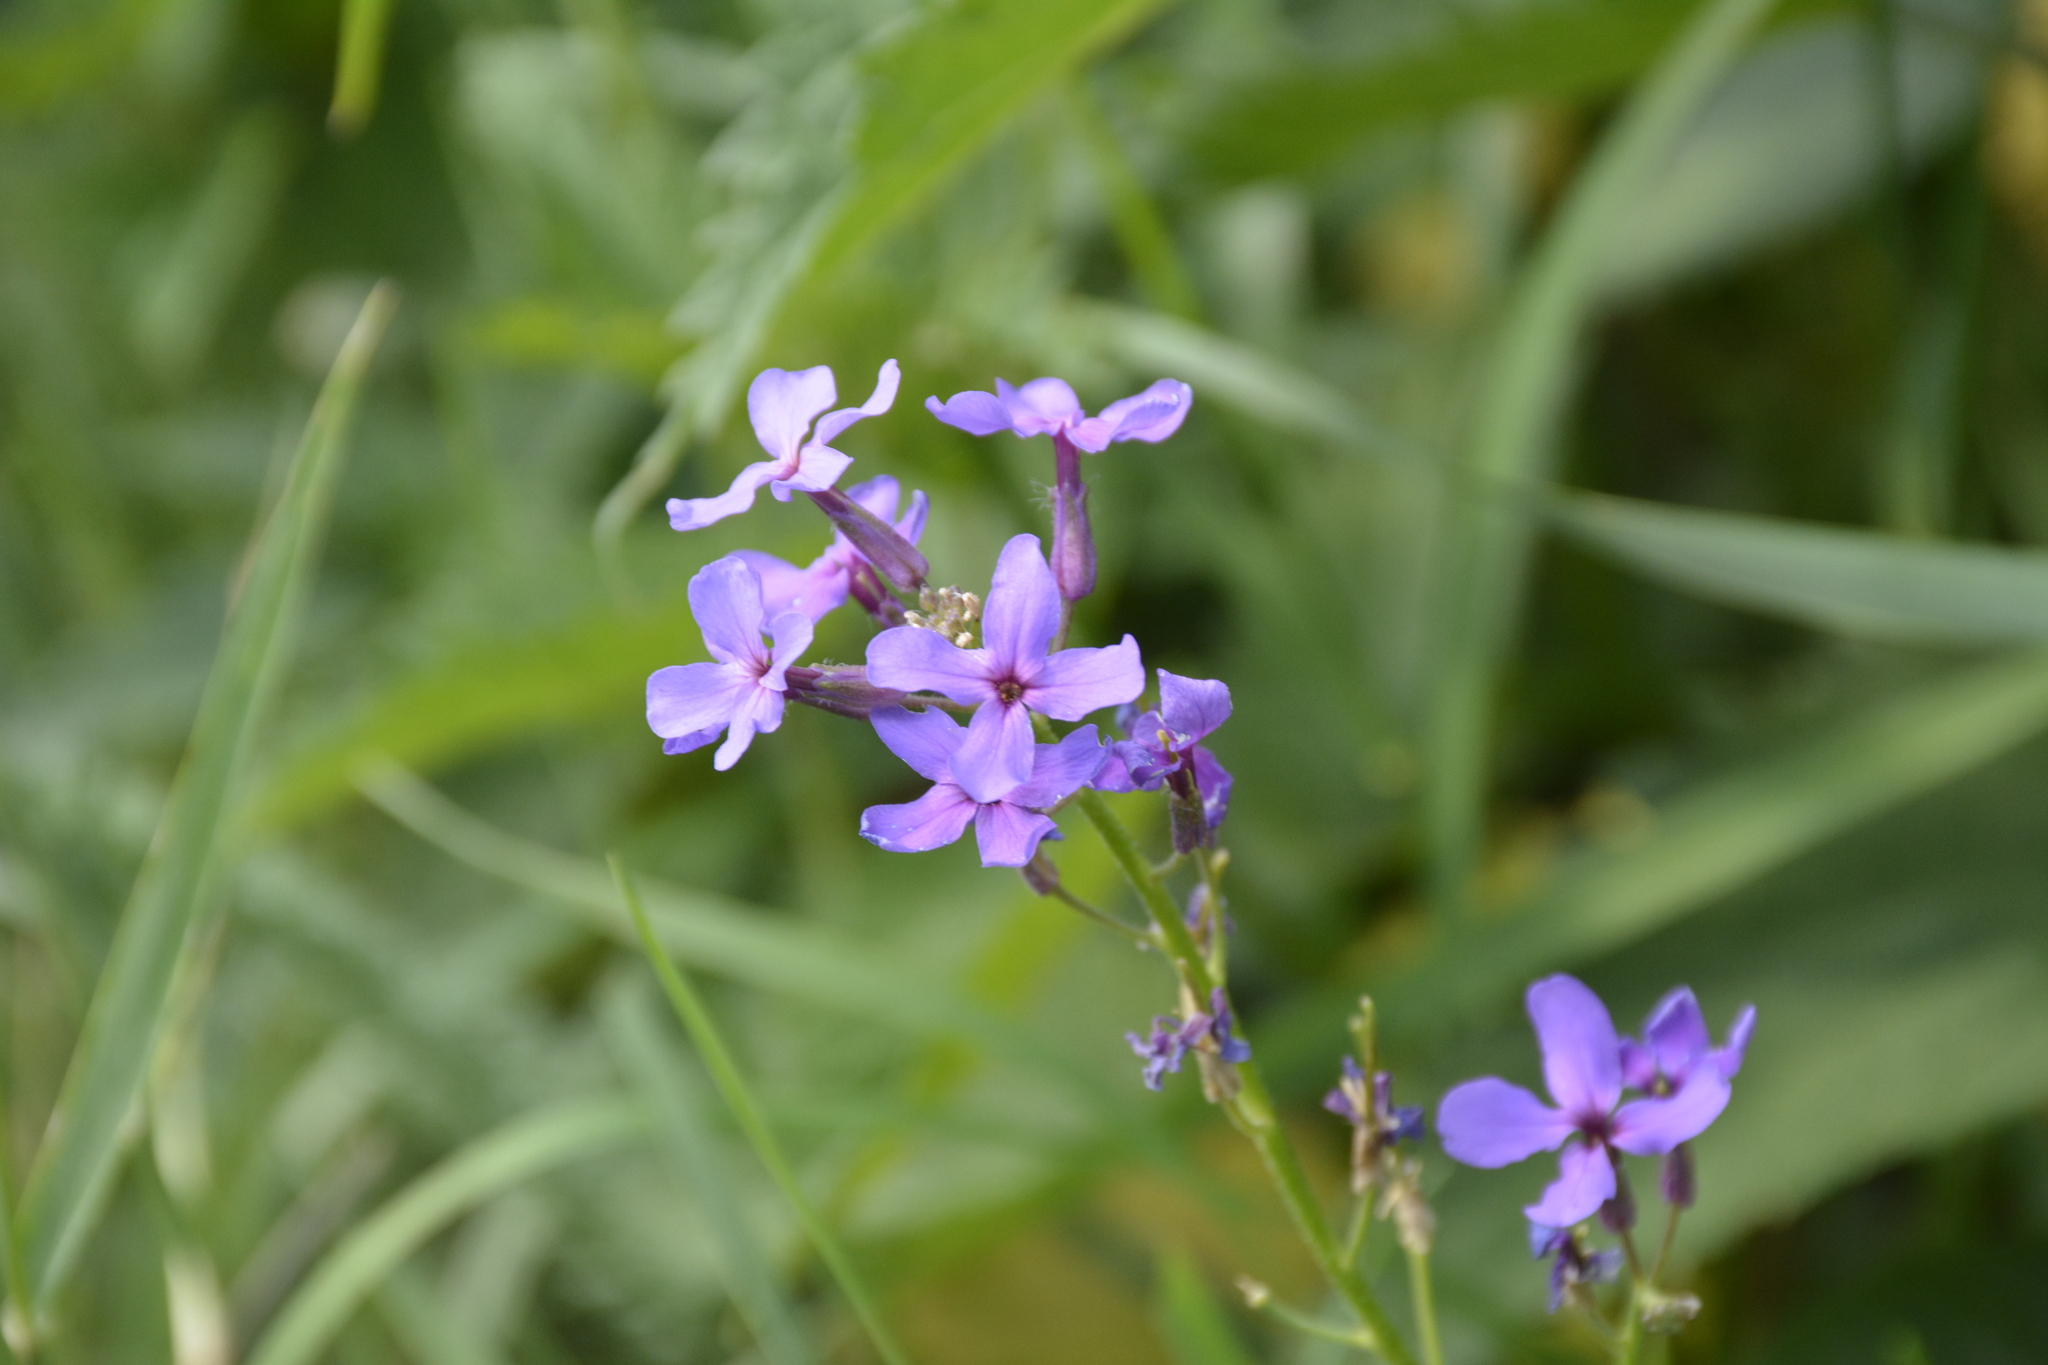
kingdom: Plantae
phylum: Tracheophyta
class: Magnoliopsida
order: Brassicales
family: Brassicaceae
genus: Hesperis
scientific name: Hesperis pycnotricha
